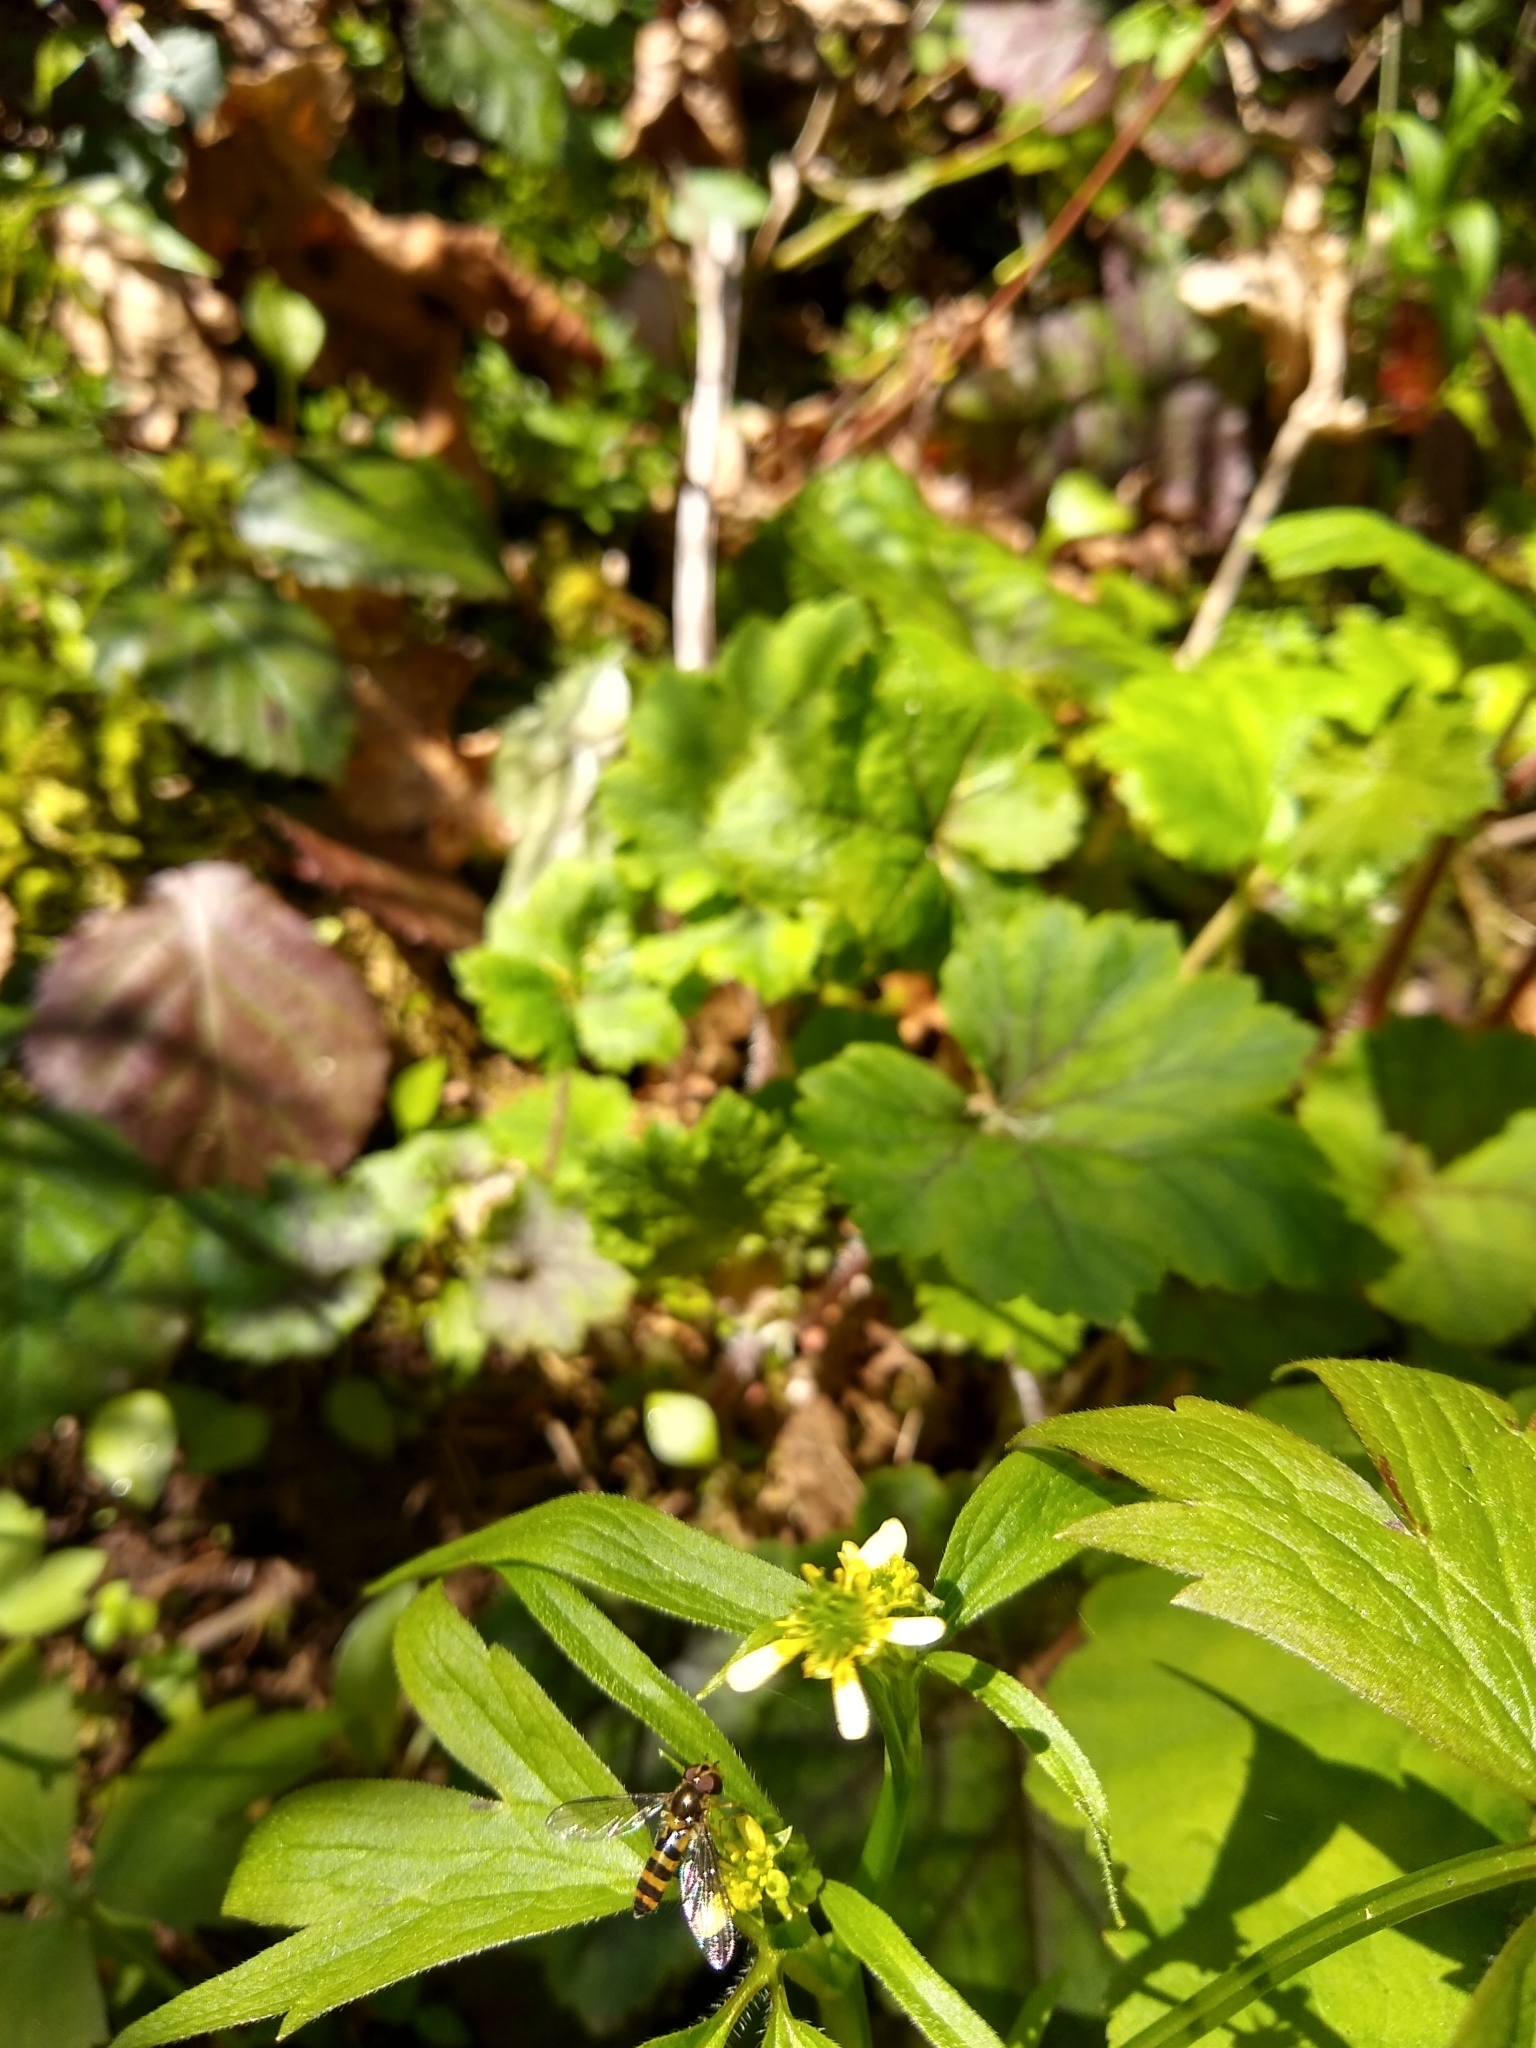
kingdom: Plantae
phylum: Tracheophyta
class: Magnoliopsida
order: Ranunculales
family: Ranunculaceae
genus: Ranunculus
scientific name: Ranunculus uncinatus
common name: Little buttercup
